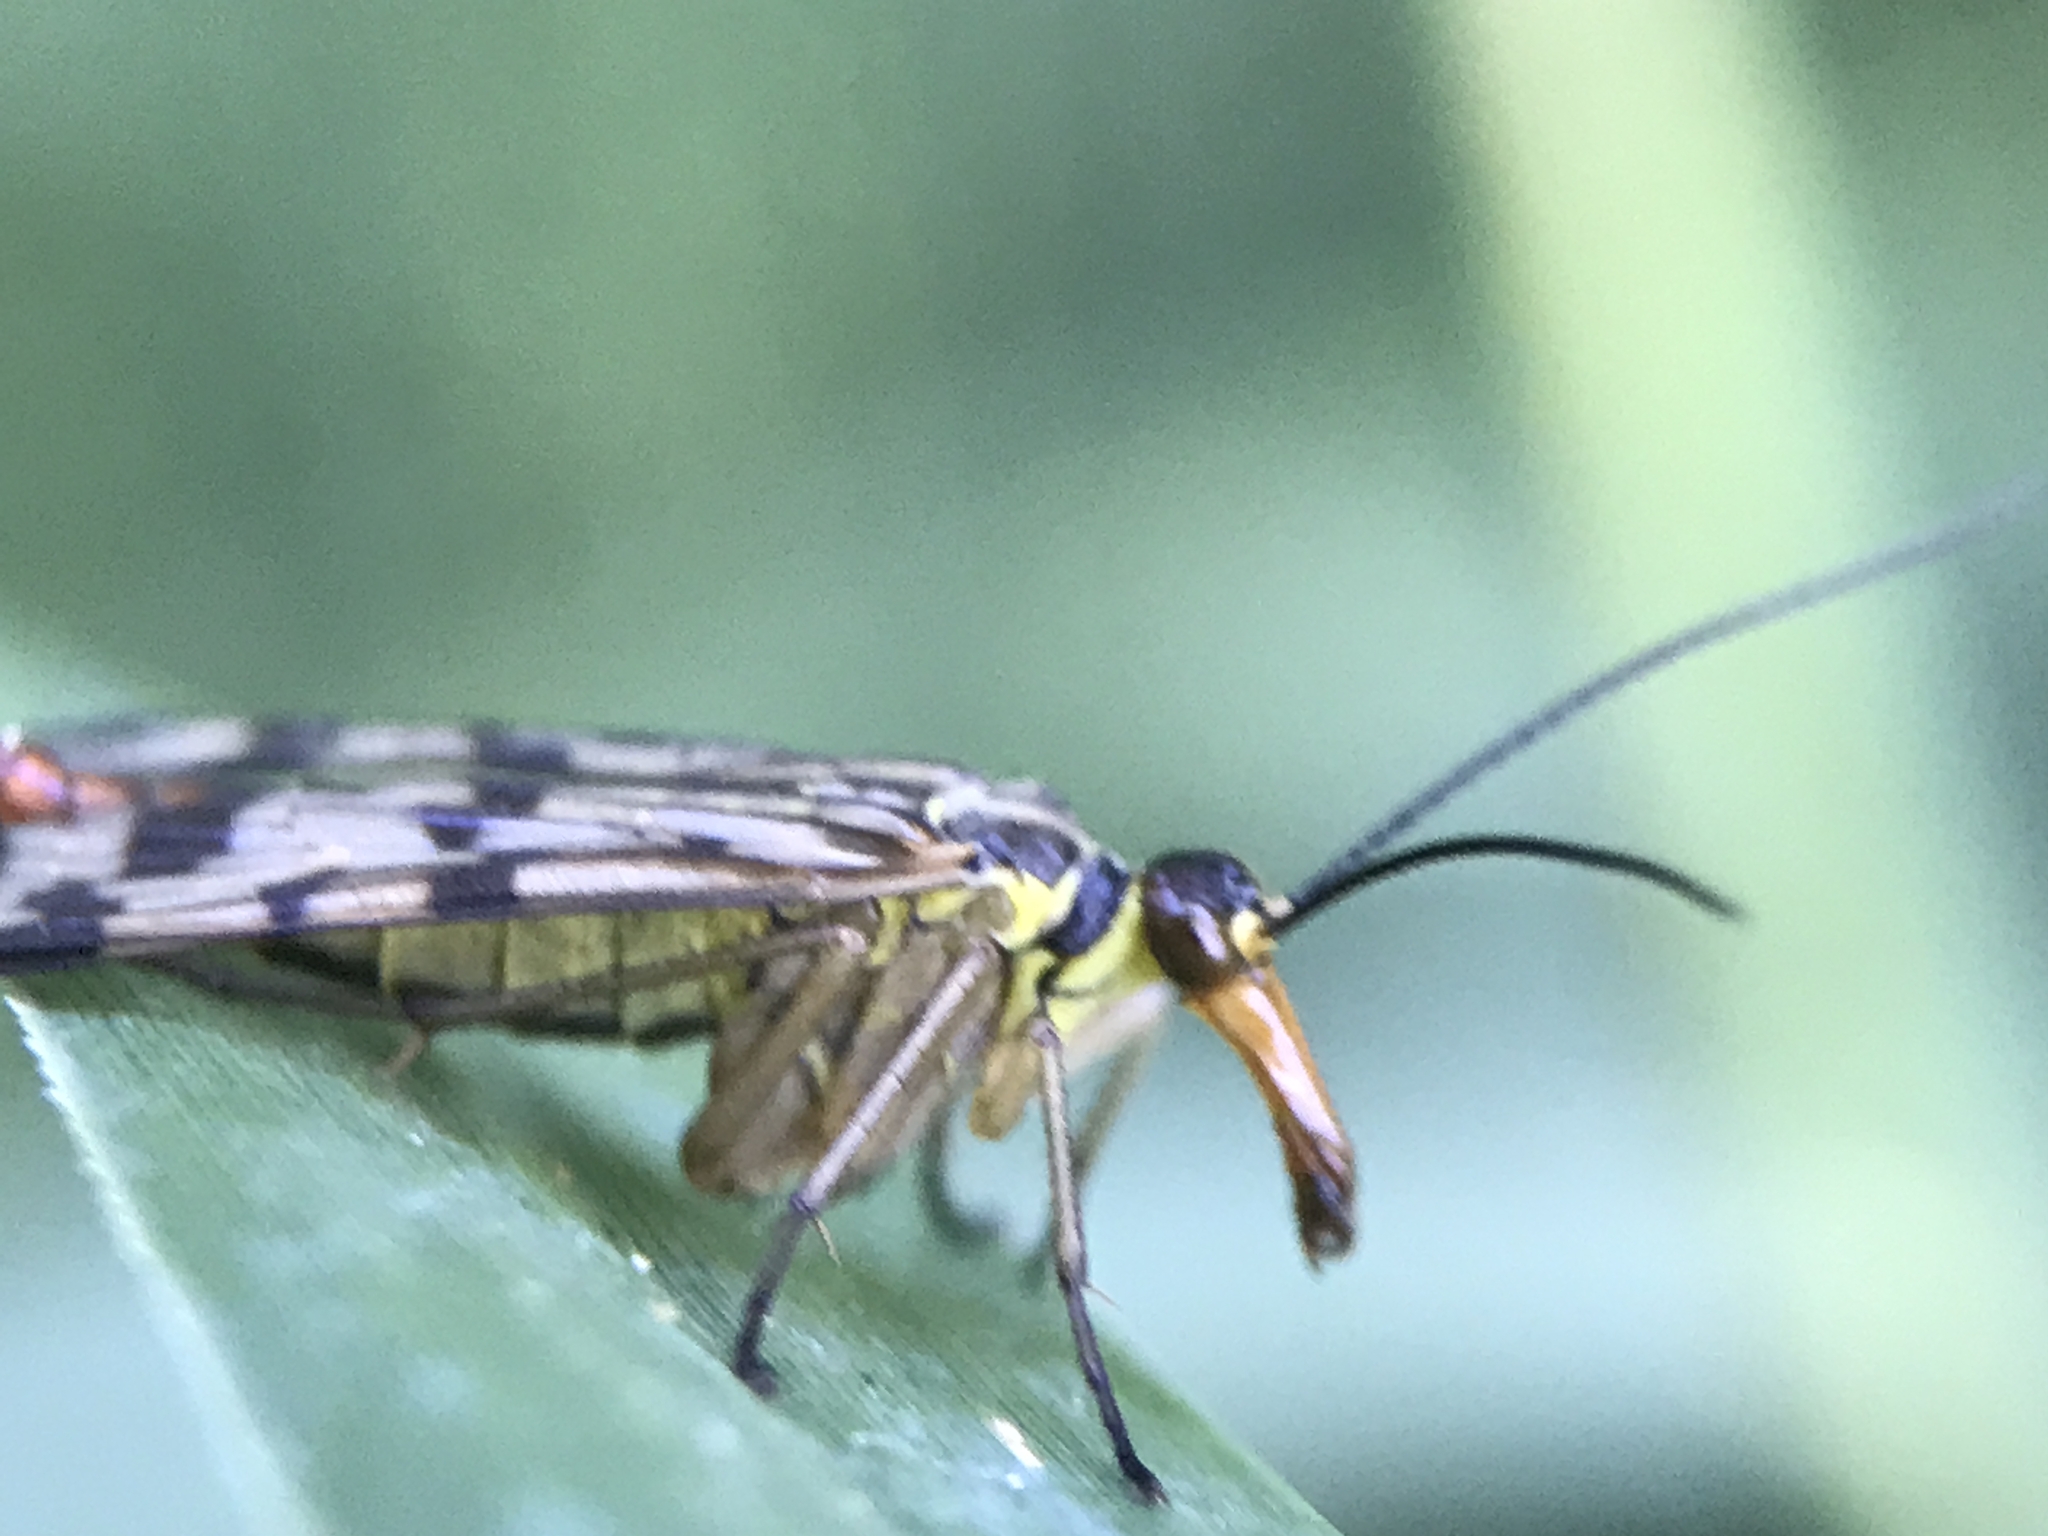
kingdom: Animalia
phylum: Arthropoda
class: Insecta
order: Mecoptera
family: Panorpidae
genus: Panorpa
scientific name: Panorpa communis
